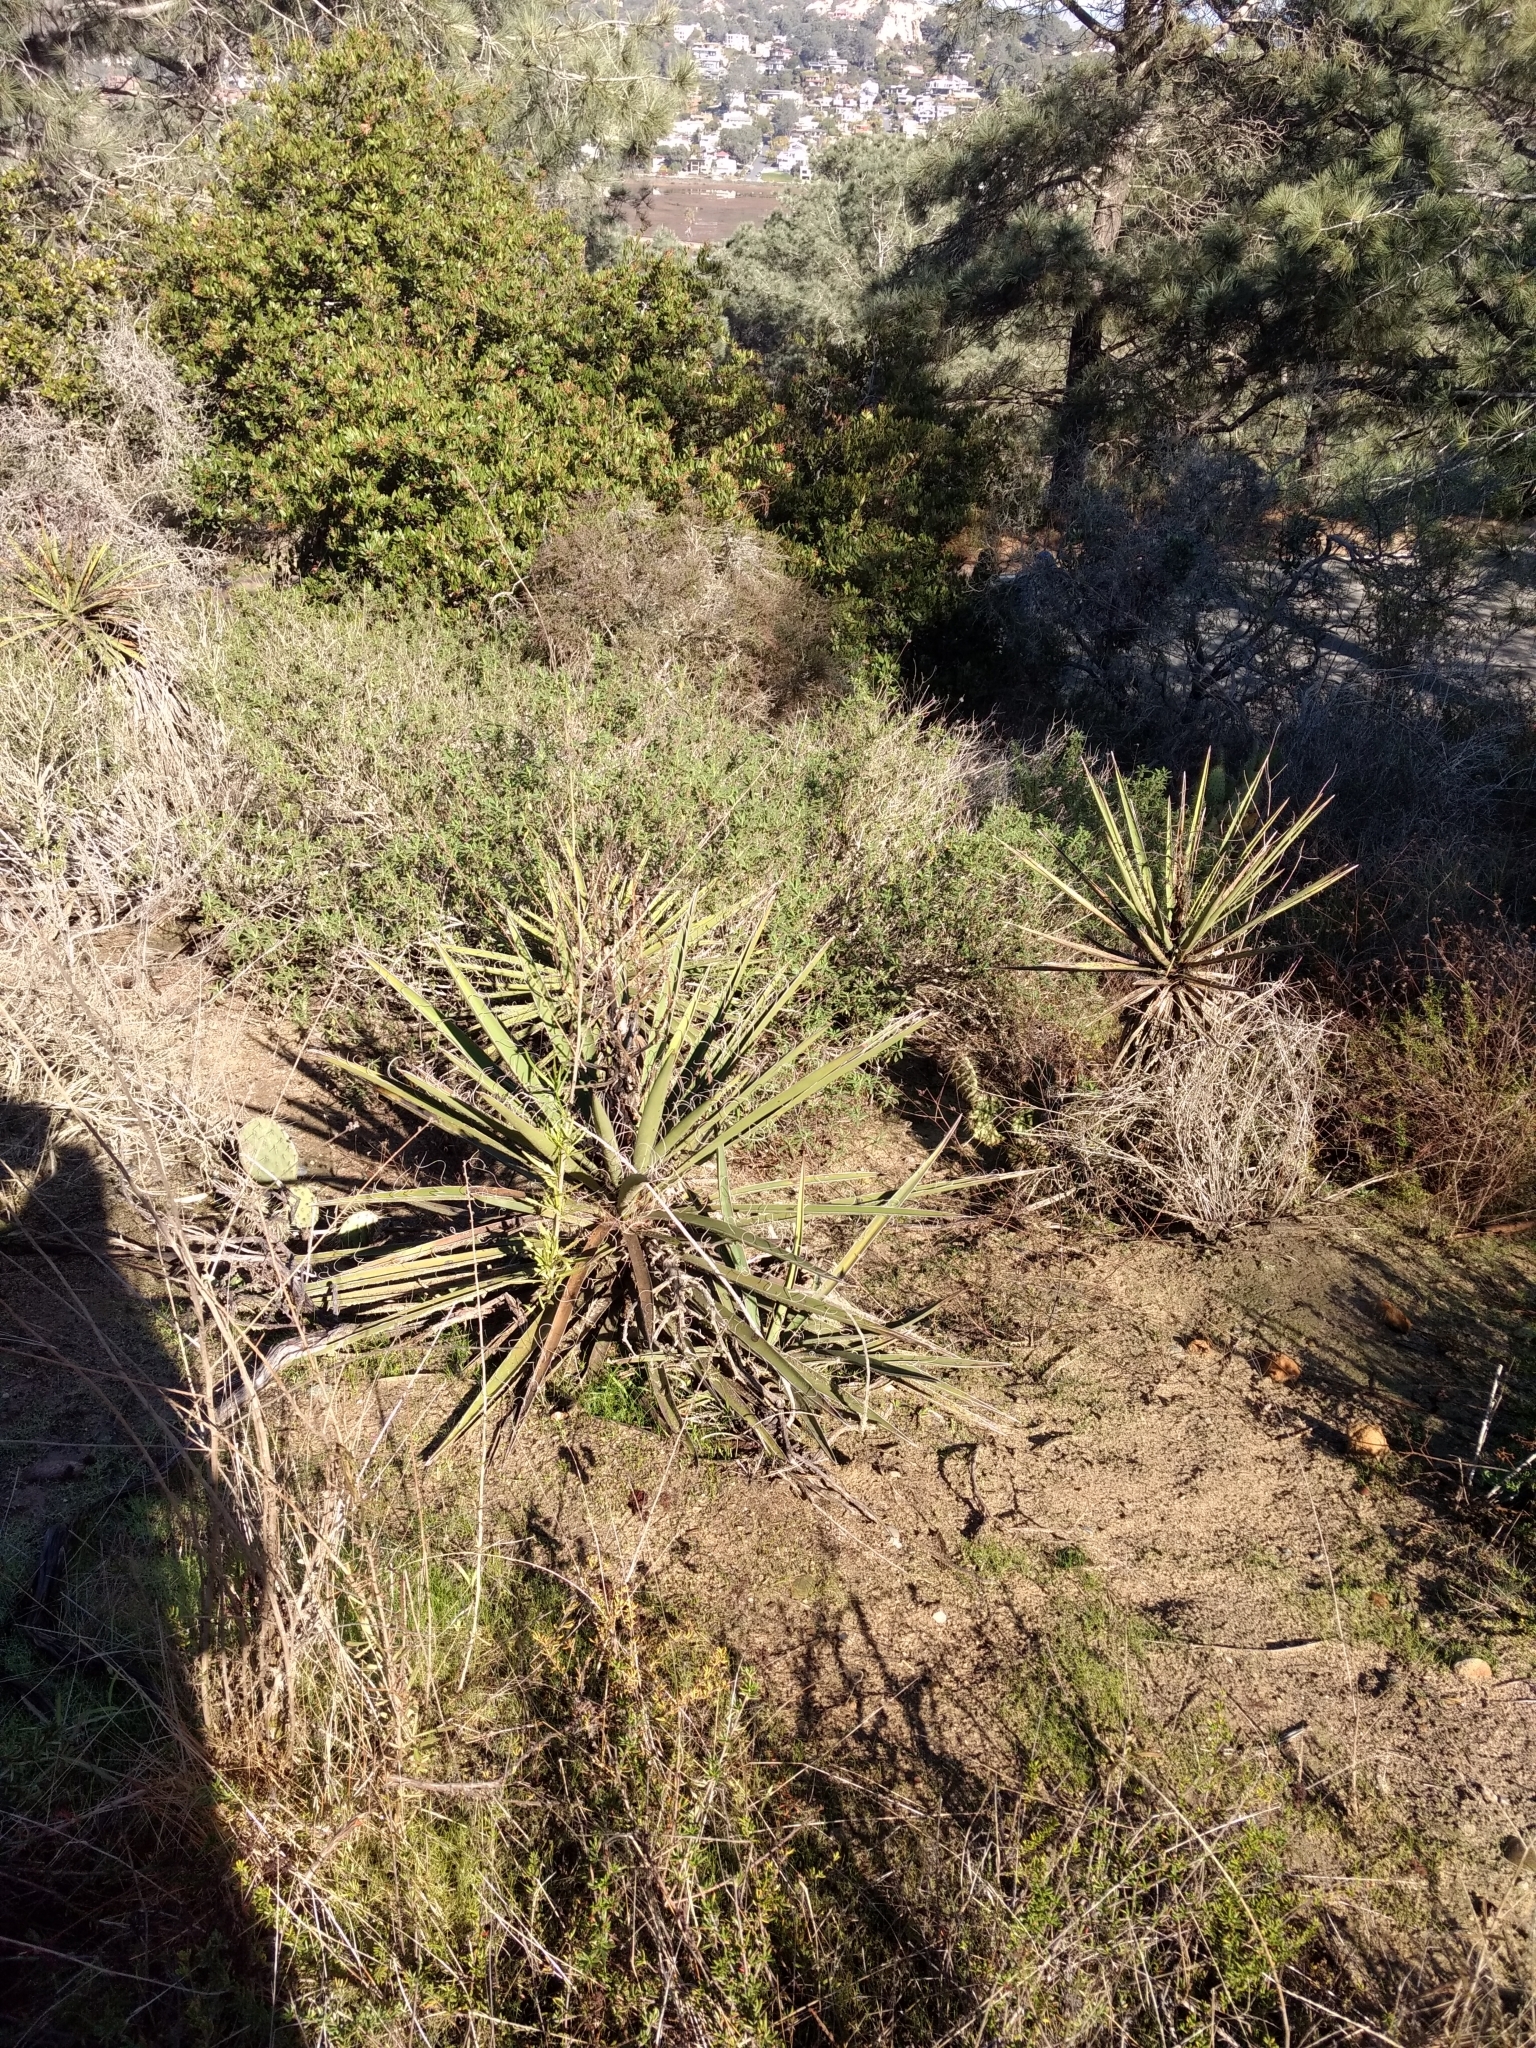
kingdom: Plantae
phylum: Tracheophyta
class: Liliopsida
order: Asparagales
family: Asparagaceae
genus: Yucca
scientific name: Yucca schidigera
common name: Mojave yucca
